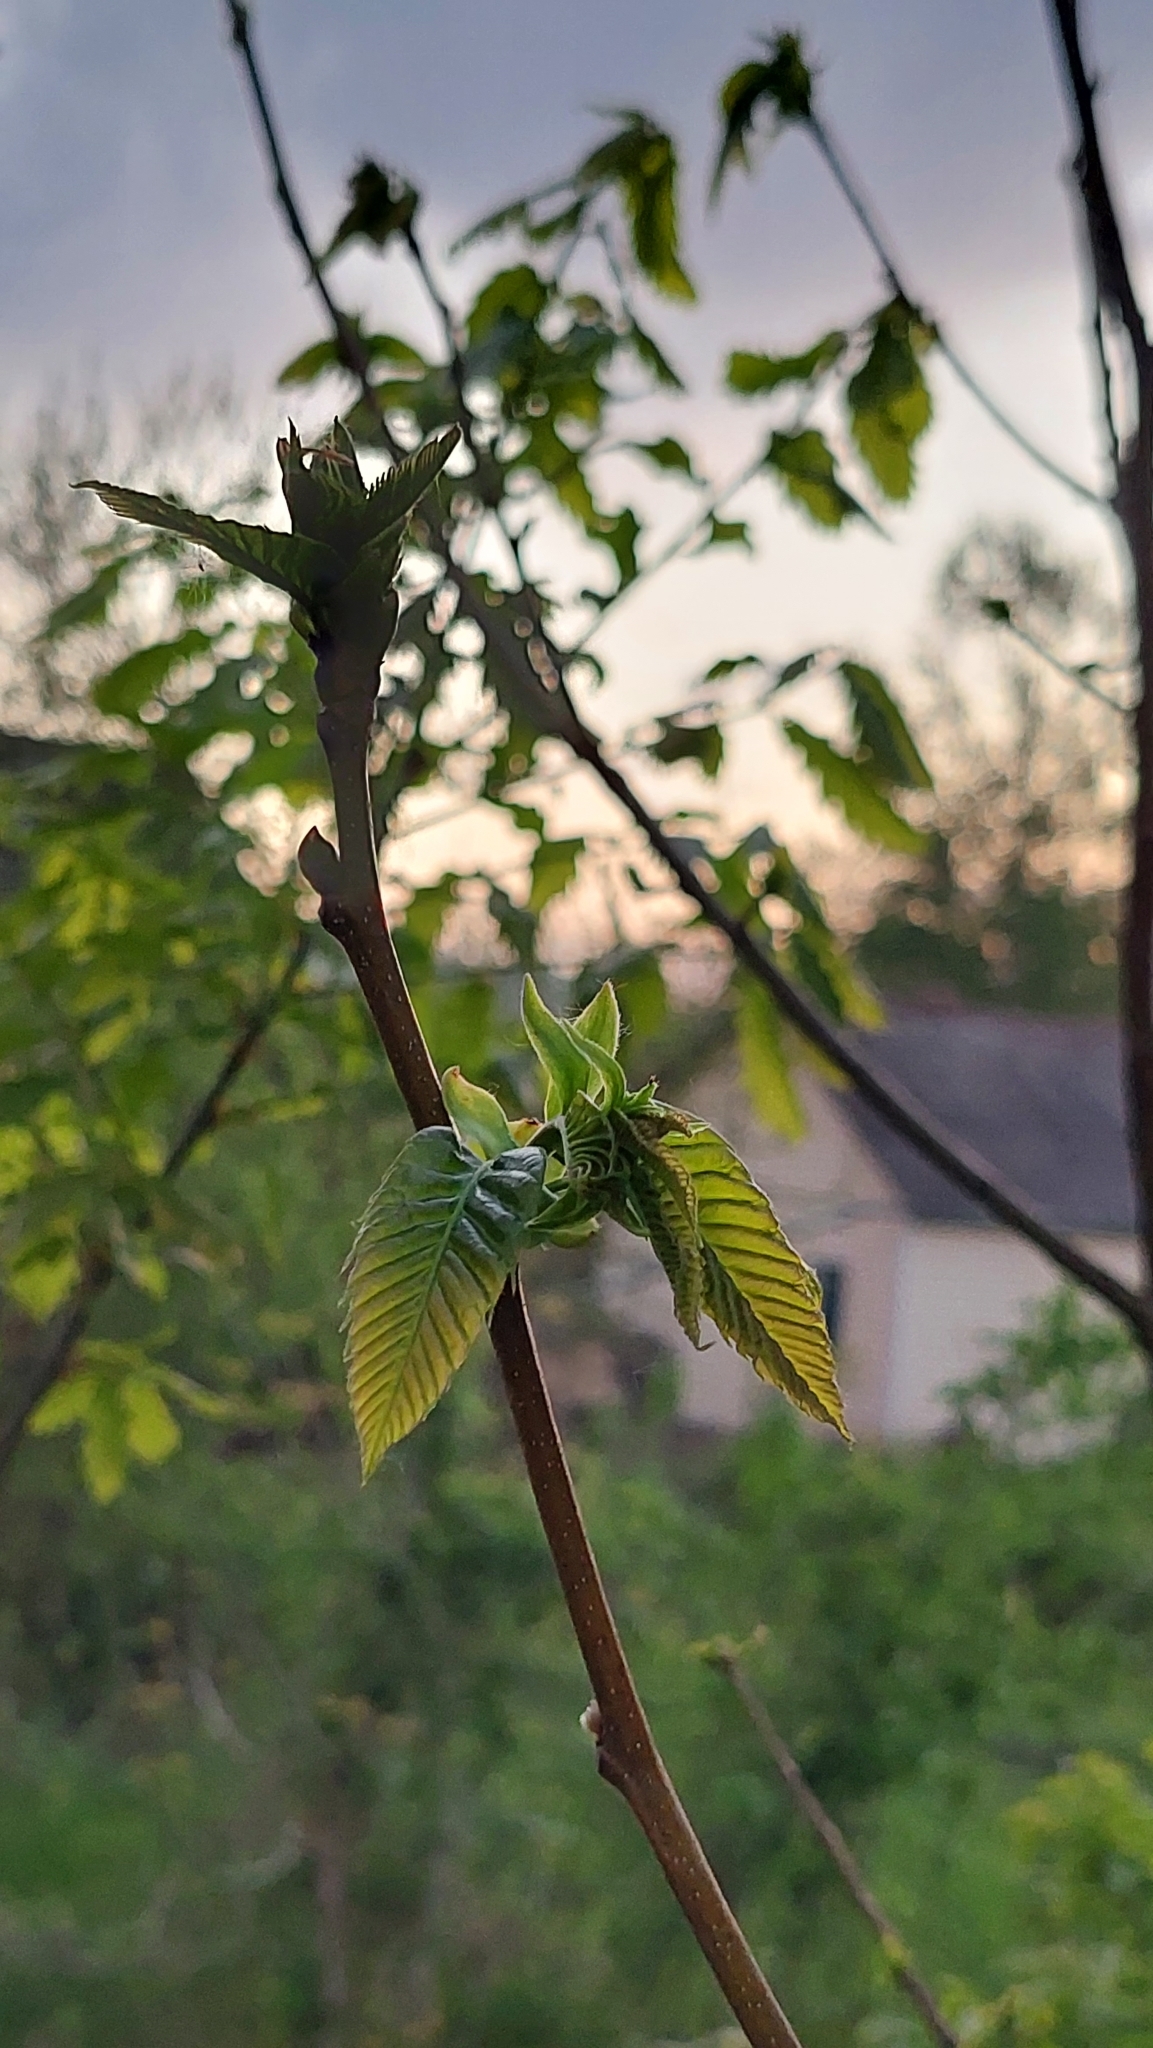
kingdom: Plantae
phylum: Tracheophyta
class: Magnoliopsida
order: Fagales
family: Fagaceae
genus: Castanea
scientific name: Castanea sativa
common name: Sweet chestnut
